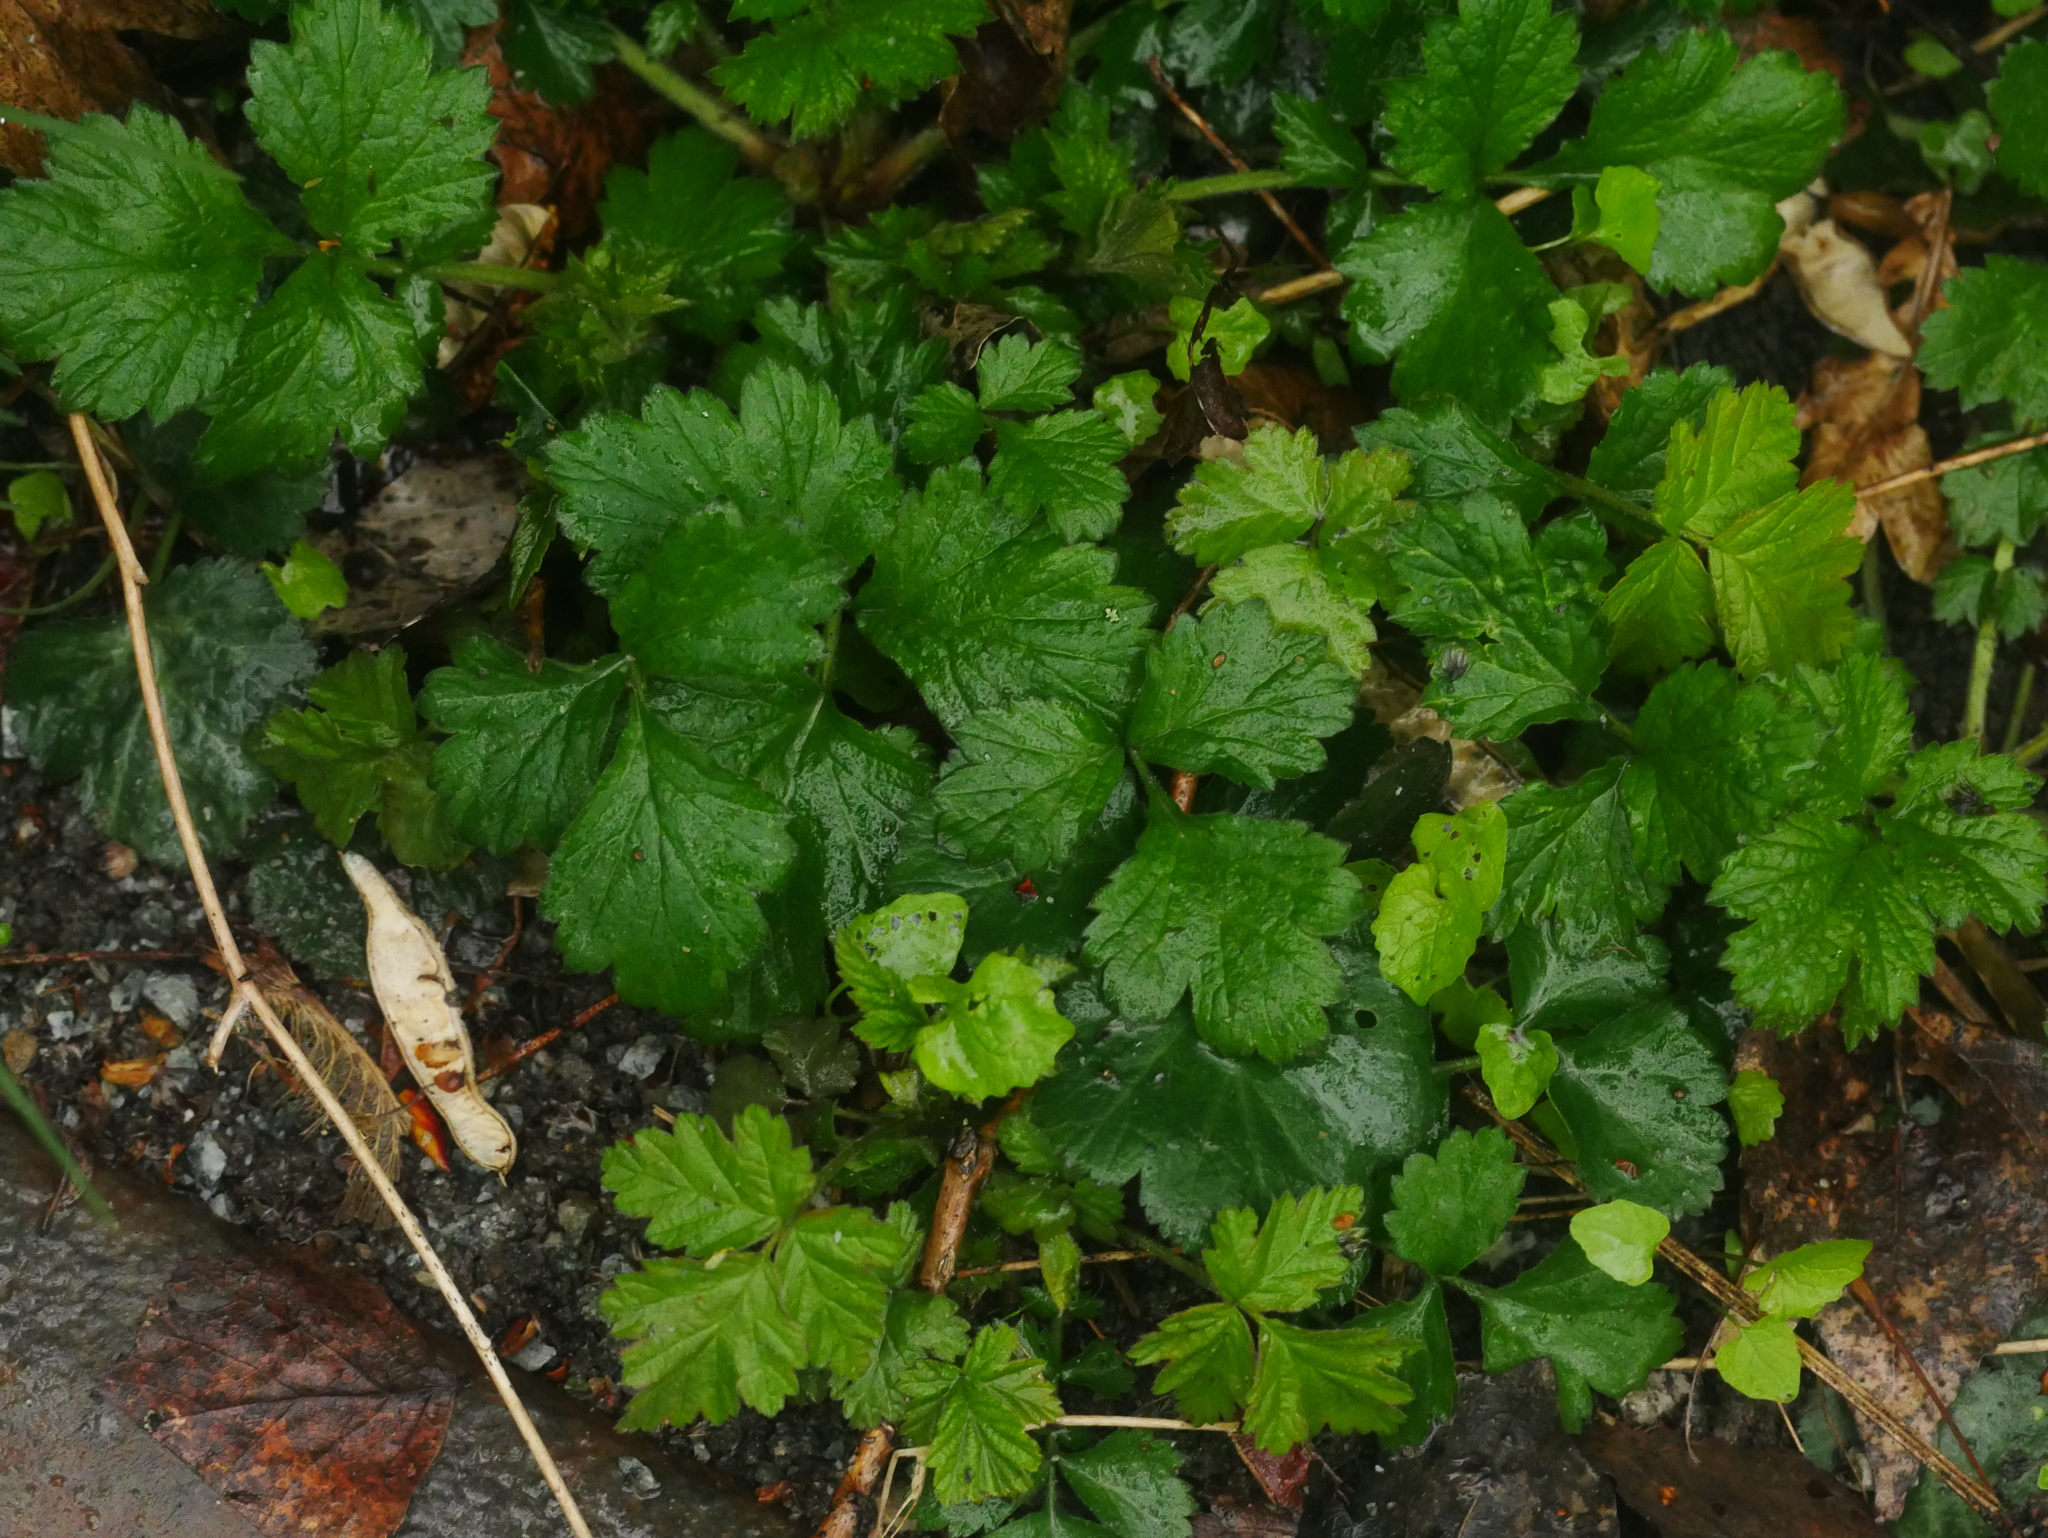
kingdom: Plantae
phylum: Tracheophyta
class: Magnoliopsida
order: Rosales
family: Rosaceae
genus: Geum
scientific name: Geum urbanum
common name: Wood avens
